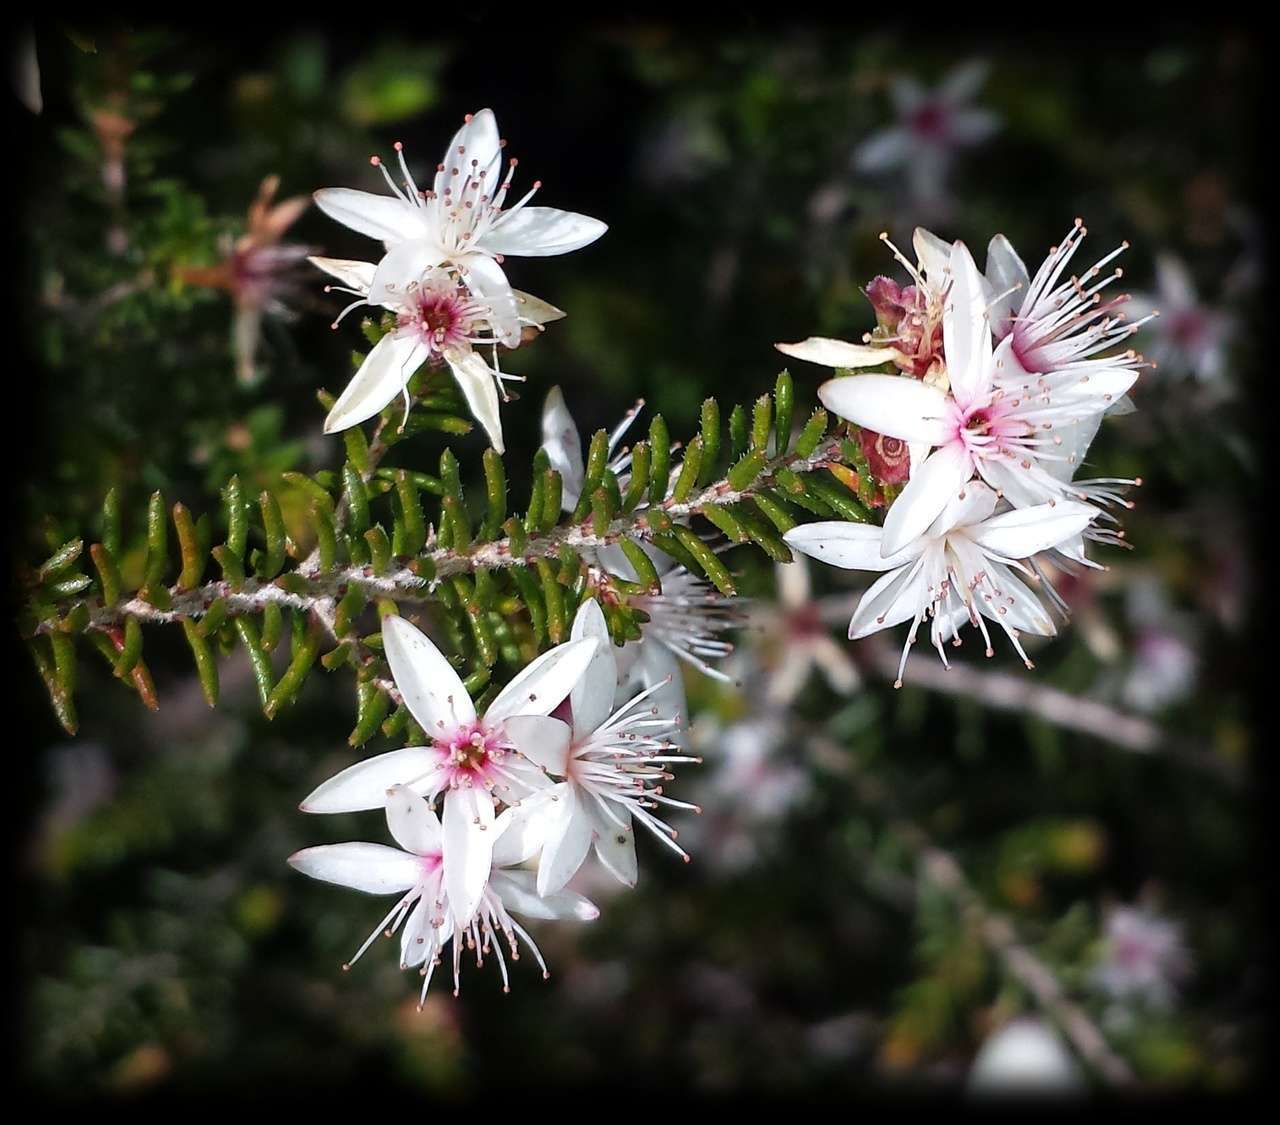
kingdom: Plantae
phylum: Tracheophyta
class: Magnoliopsida
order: Myrtales
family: Myrtaceae
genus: Calytrix
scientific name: Calytrix alpestris
